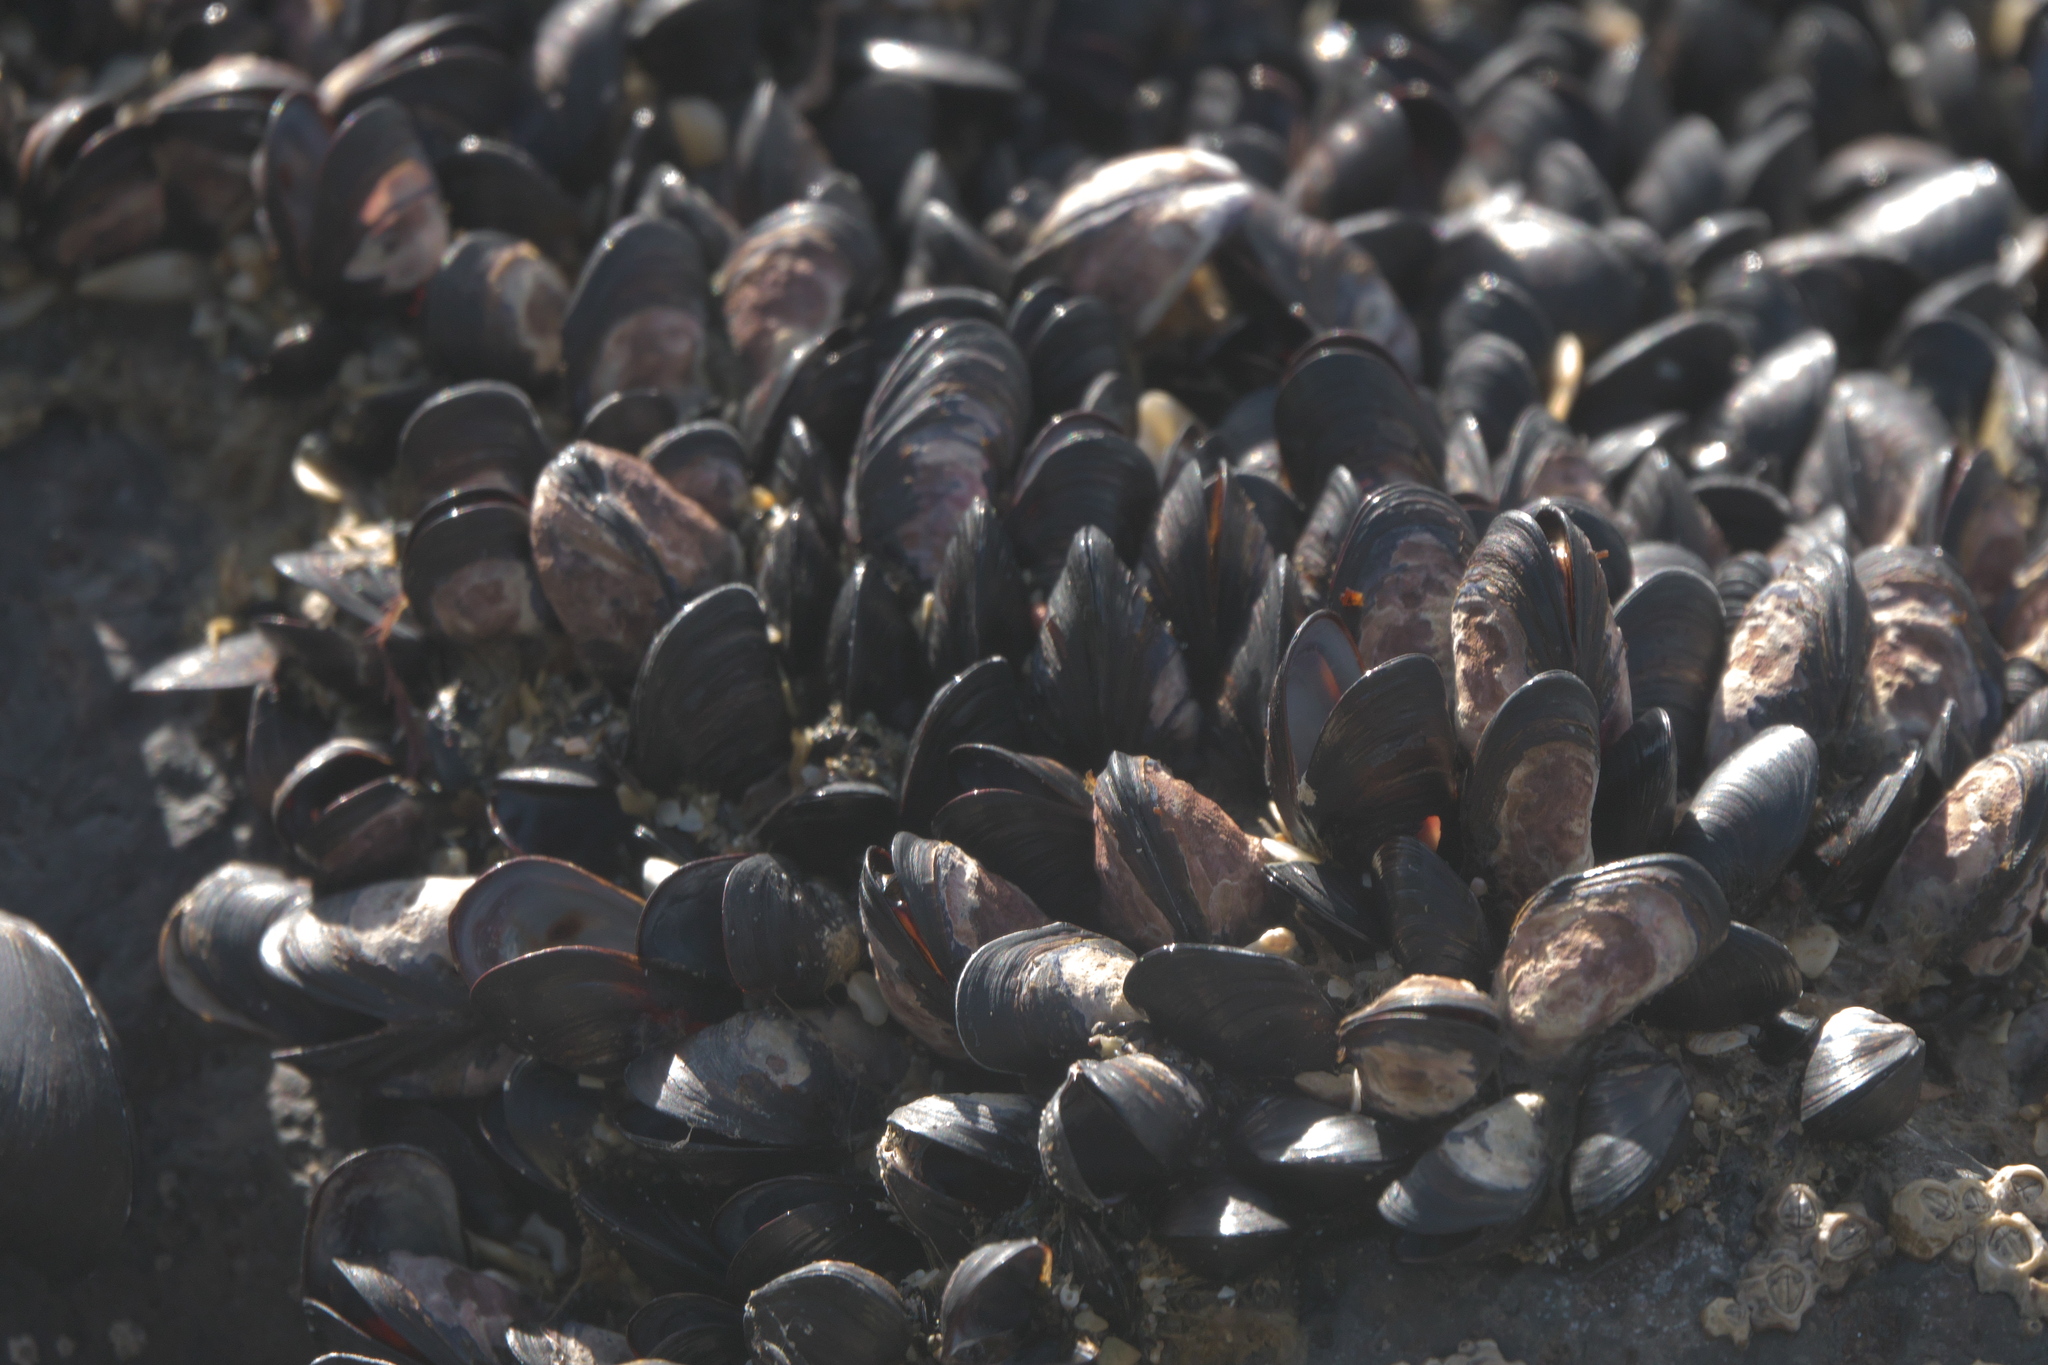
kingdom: Animalia
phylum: Mollusca
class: Bivalvia
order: Mytilida
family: Mytilidae
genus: Xenostrobus
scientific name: Xenostrobus neozelanicus
